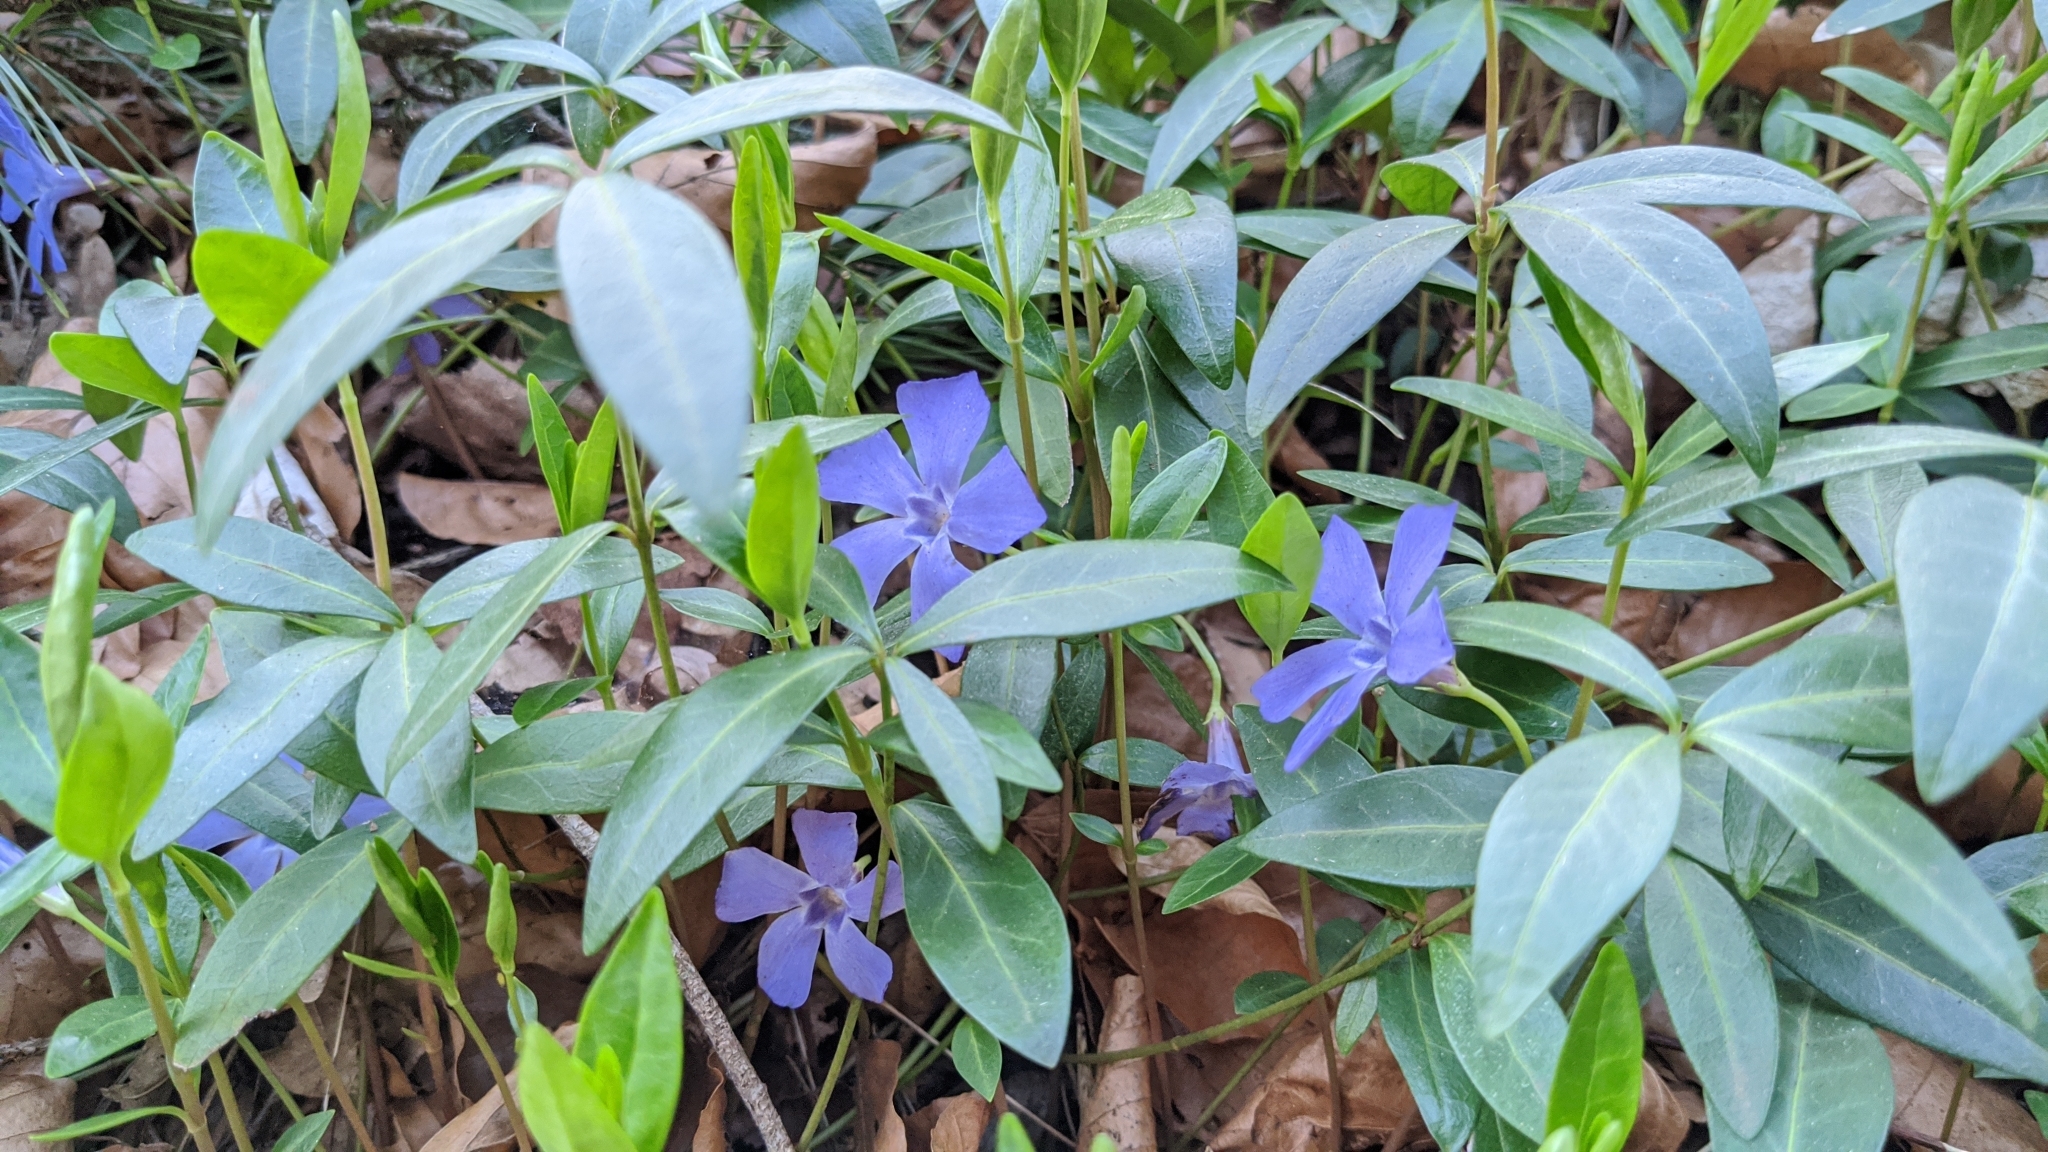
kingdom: Plantae
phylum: Tracheophyta
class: Magnoliopsida
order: Gentianales
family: Apocynaceae
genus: Vinca
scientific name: Vinca minor
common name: Lesser periwinkle
